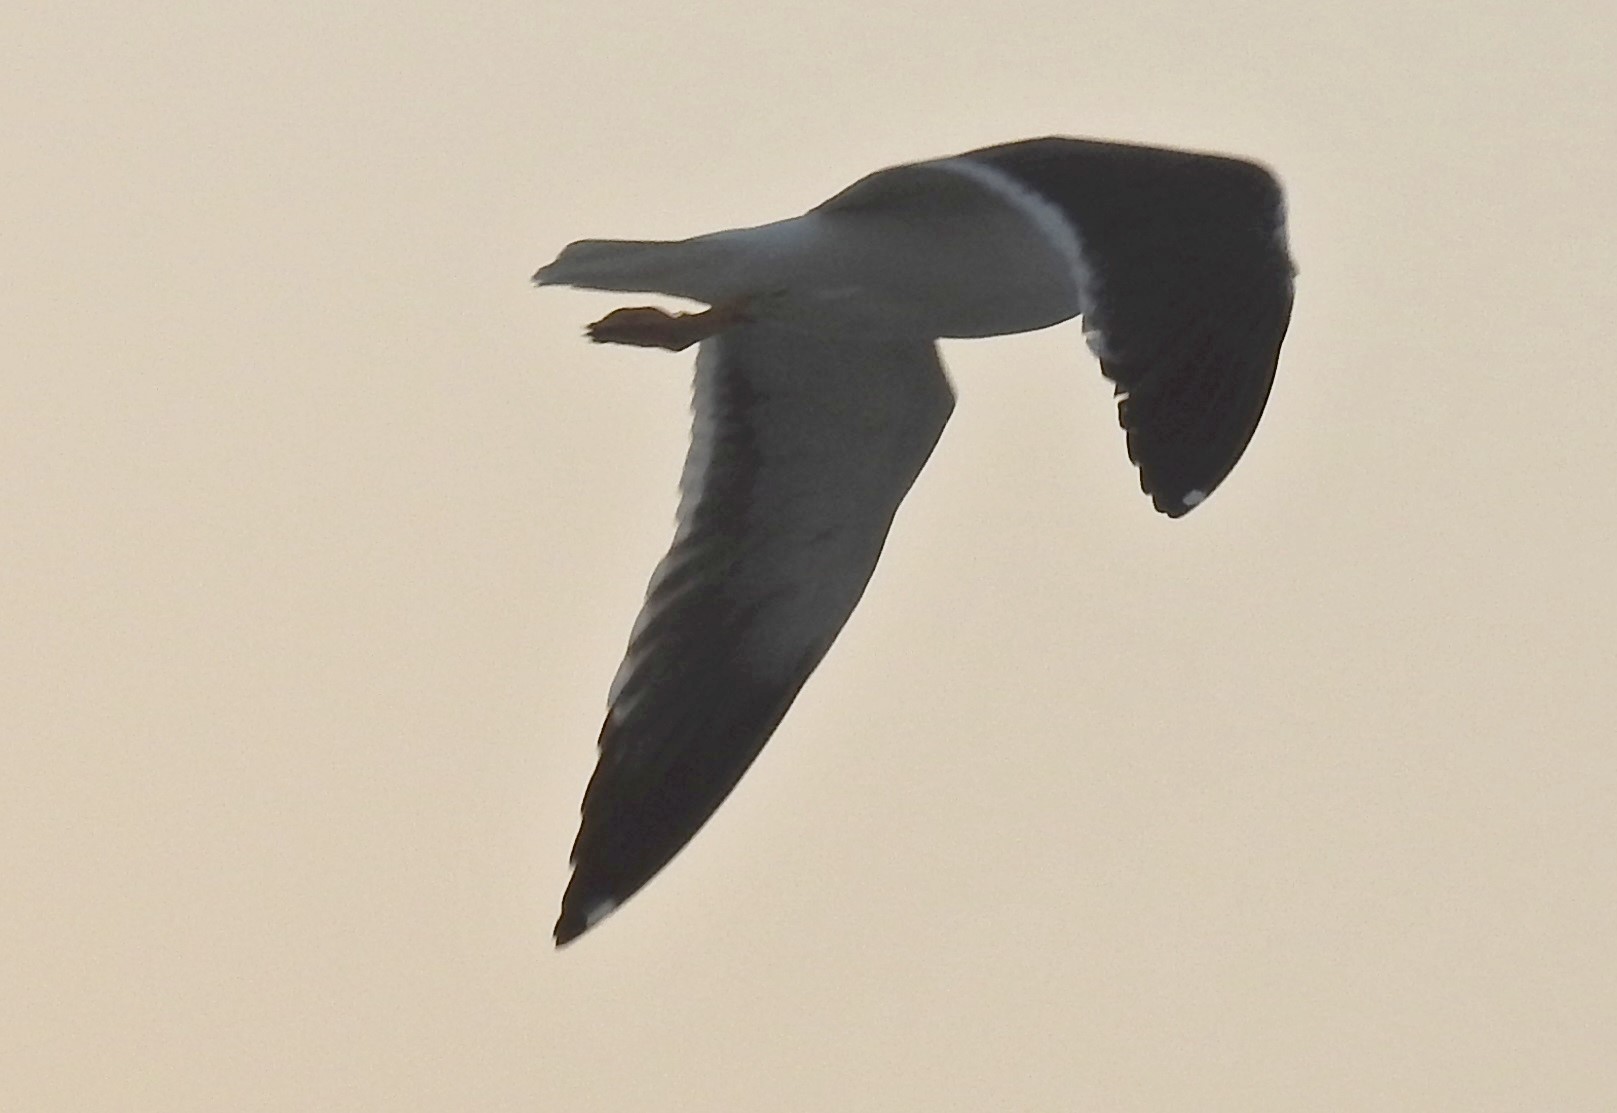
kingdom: Animalia
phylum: Chordata
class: Aves
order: Charadriiformes
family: Laridae
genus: Larus
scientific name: Larus fuscus
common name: Lesser black-backed gull
